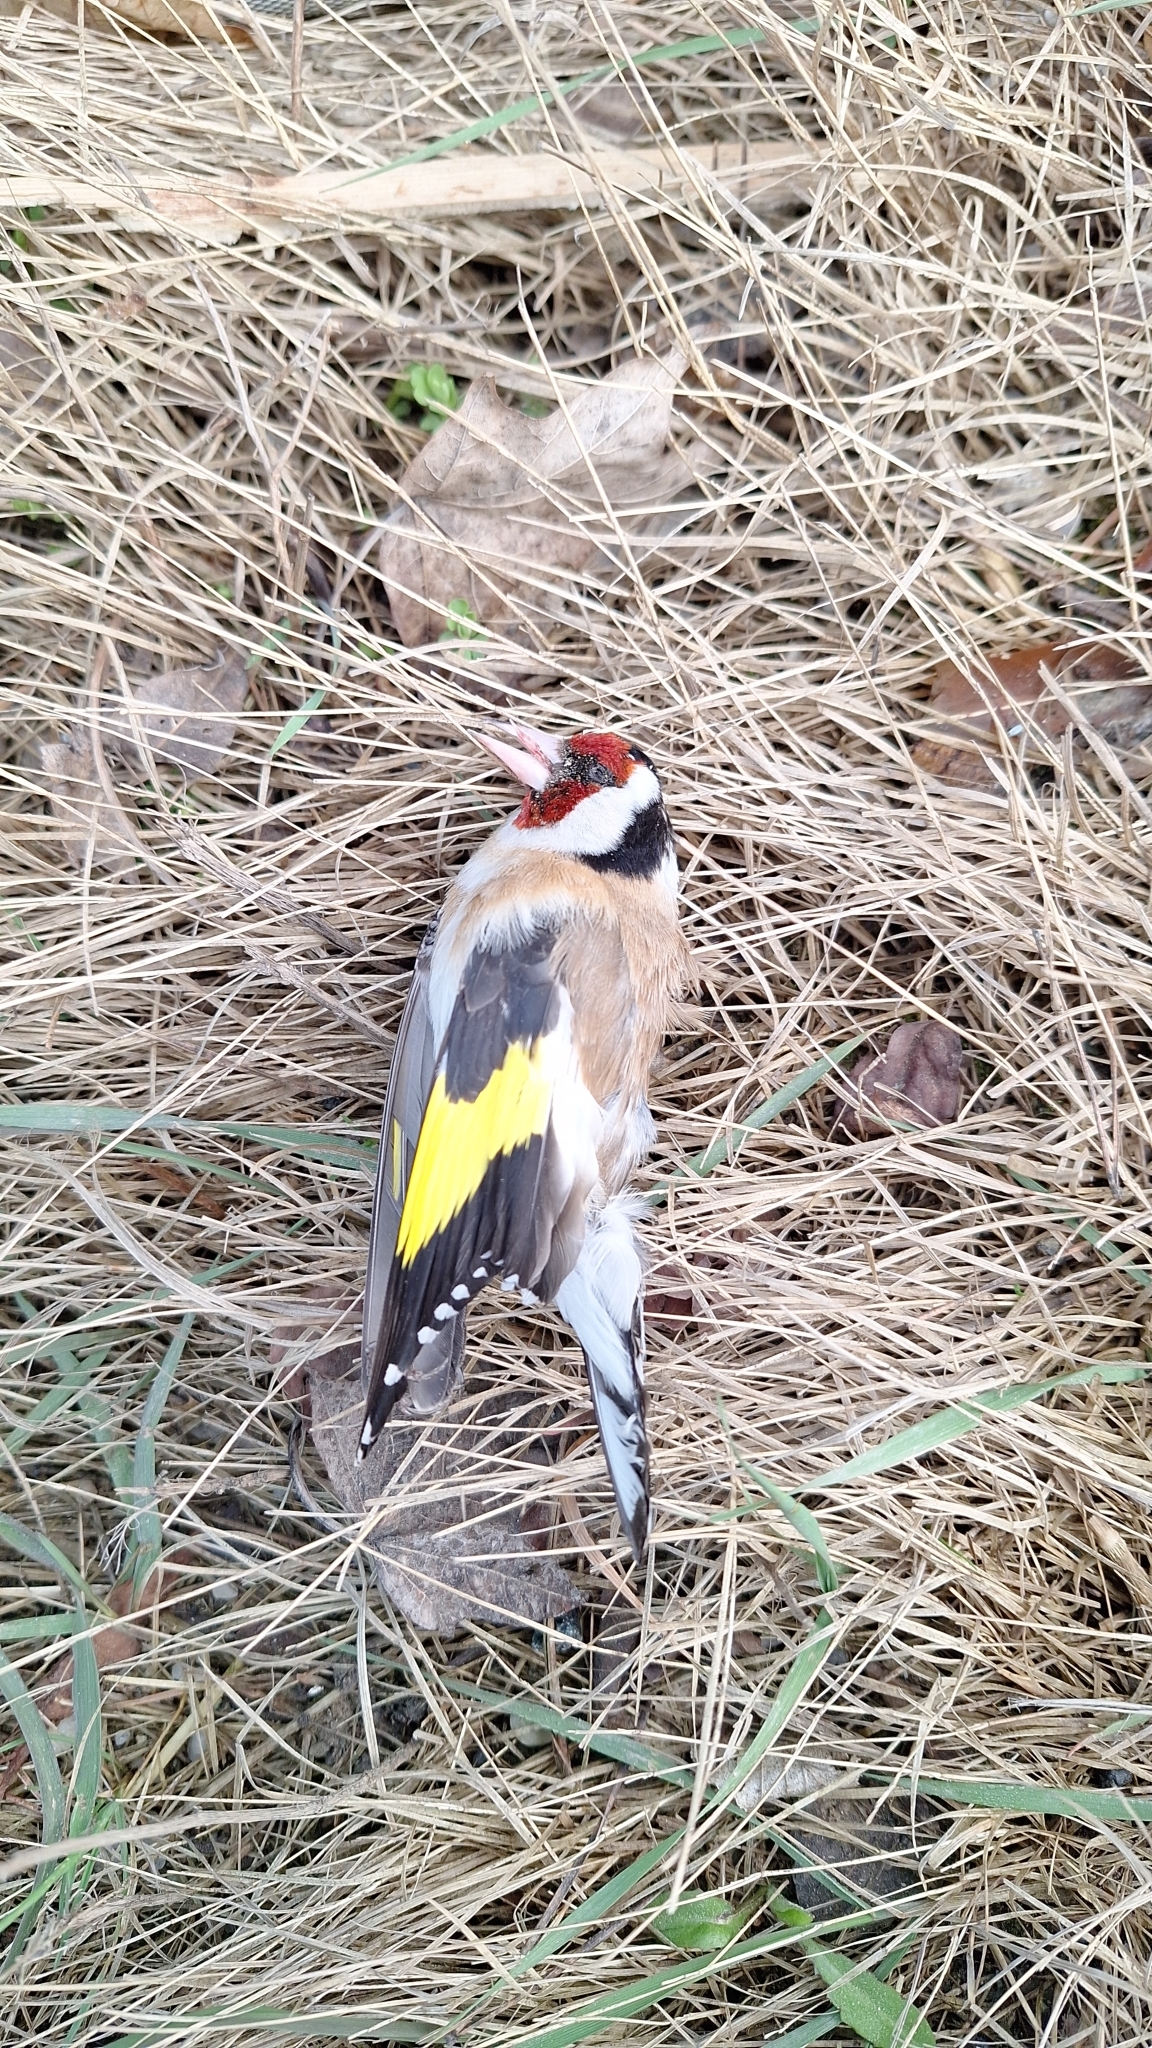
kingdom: Animalia
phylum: Chordata
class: Aves
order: Passeriformes
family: Fringillidae
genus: Carduelis
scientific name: Carduelis carduelis
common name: European goldfinch
